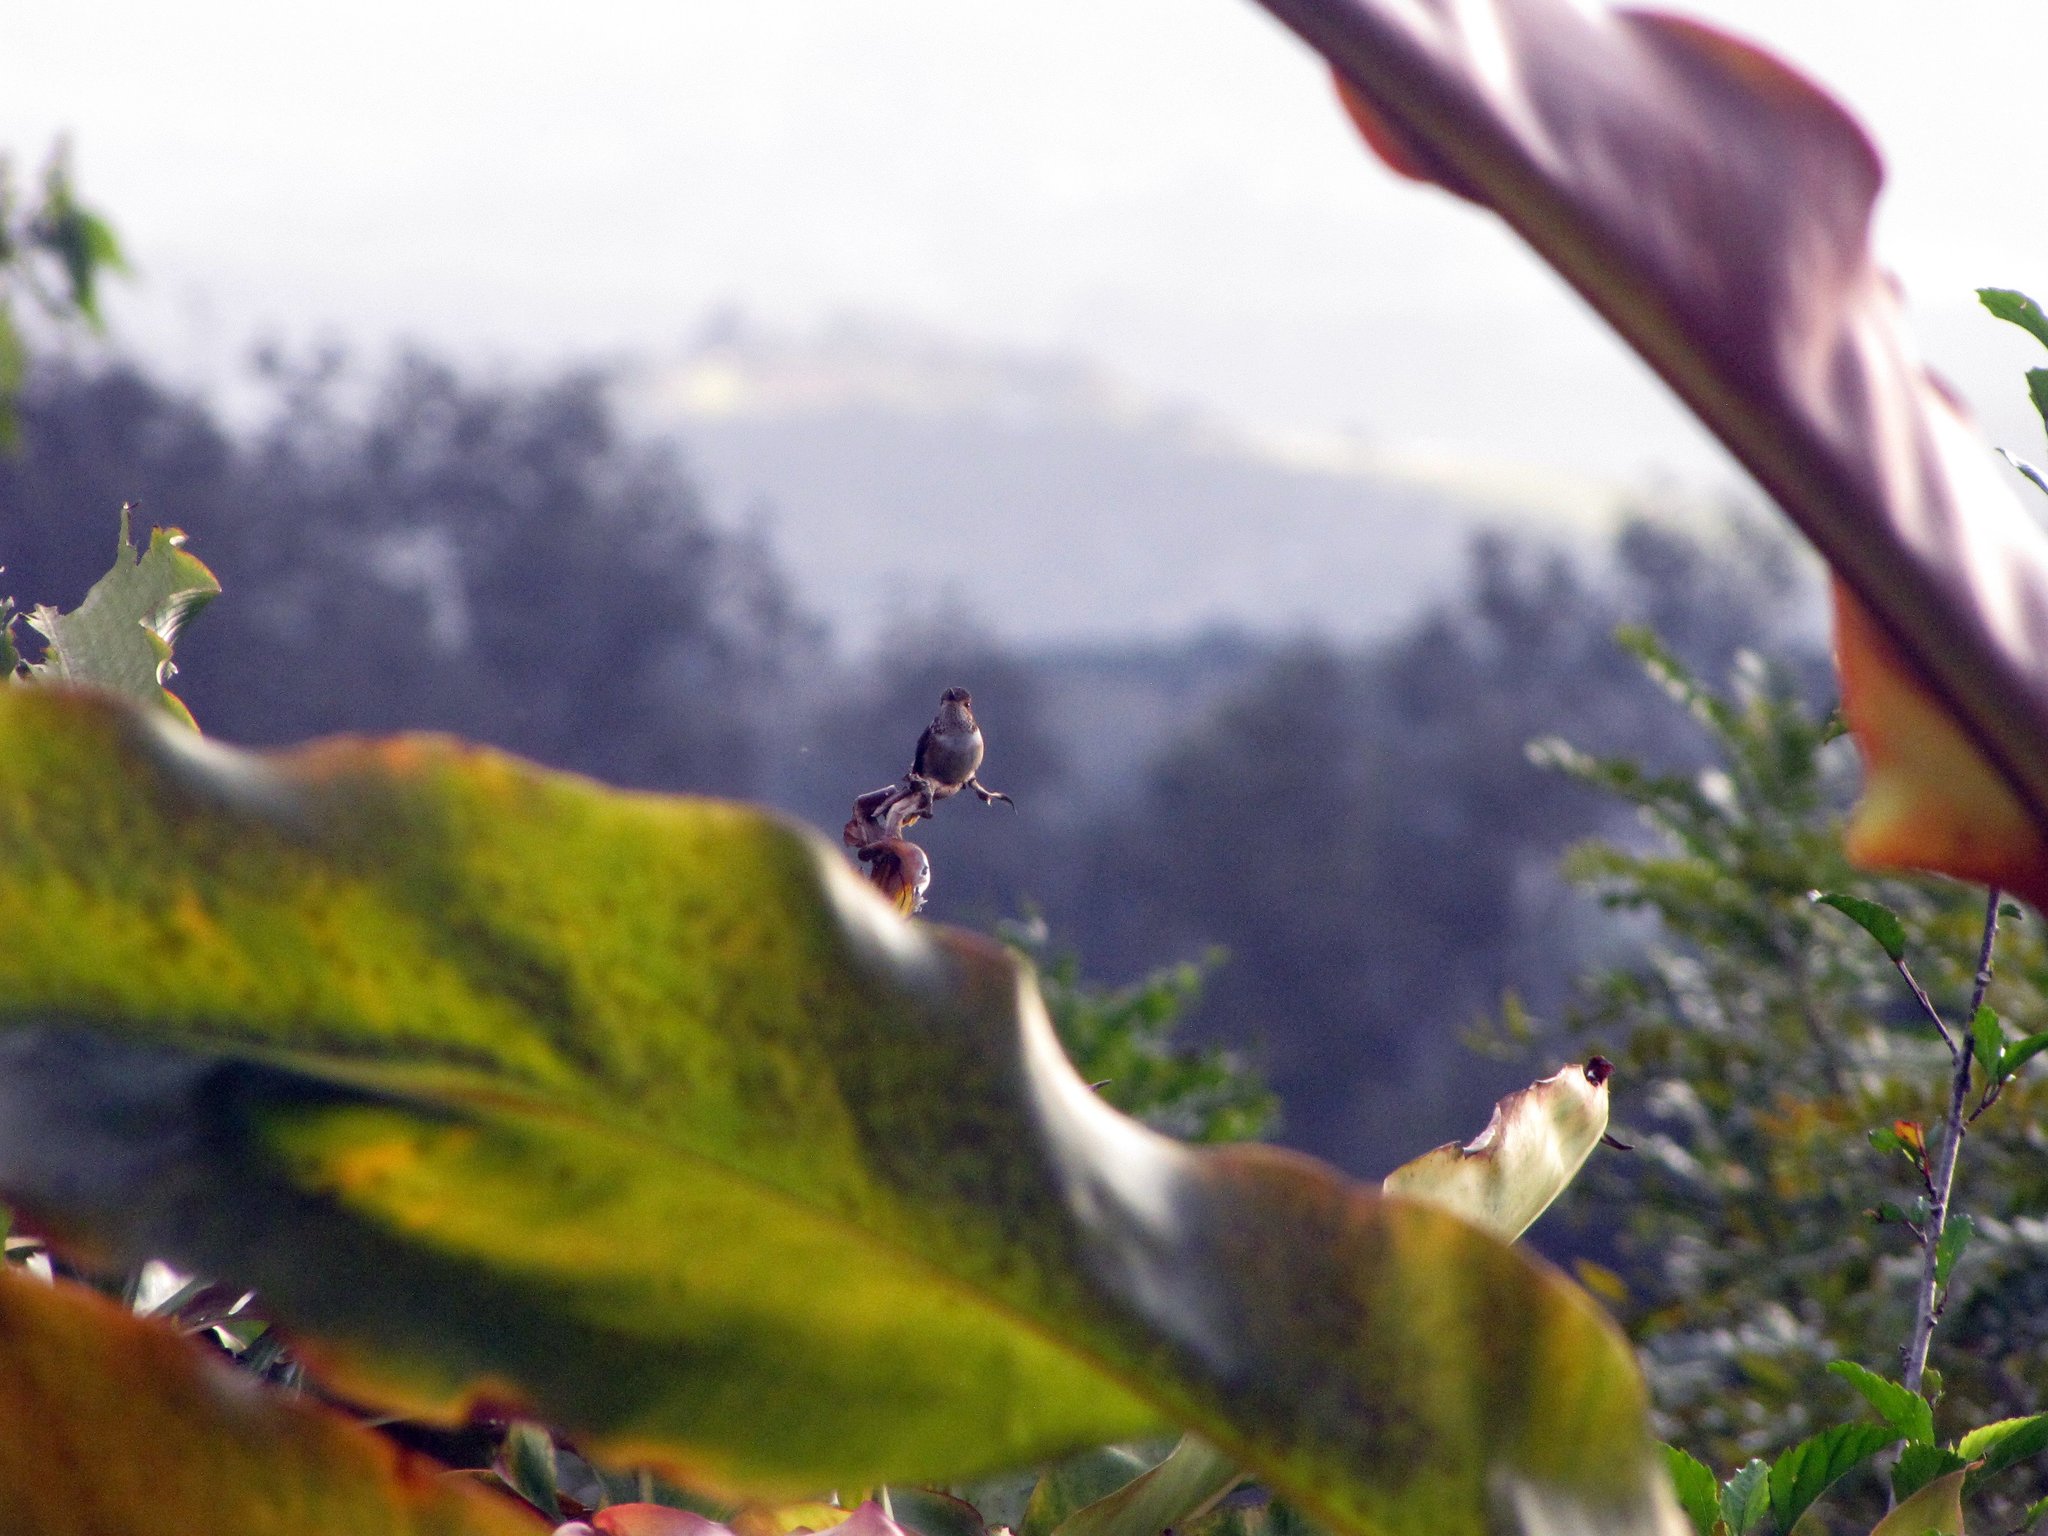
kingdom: Animalia
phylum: Chordata
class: Aves
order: Apodiformes
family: Trochilidae
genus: Selasphorus
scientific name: Selasphorus scintilla
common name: Scintillant hummingbird
